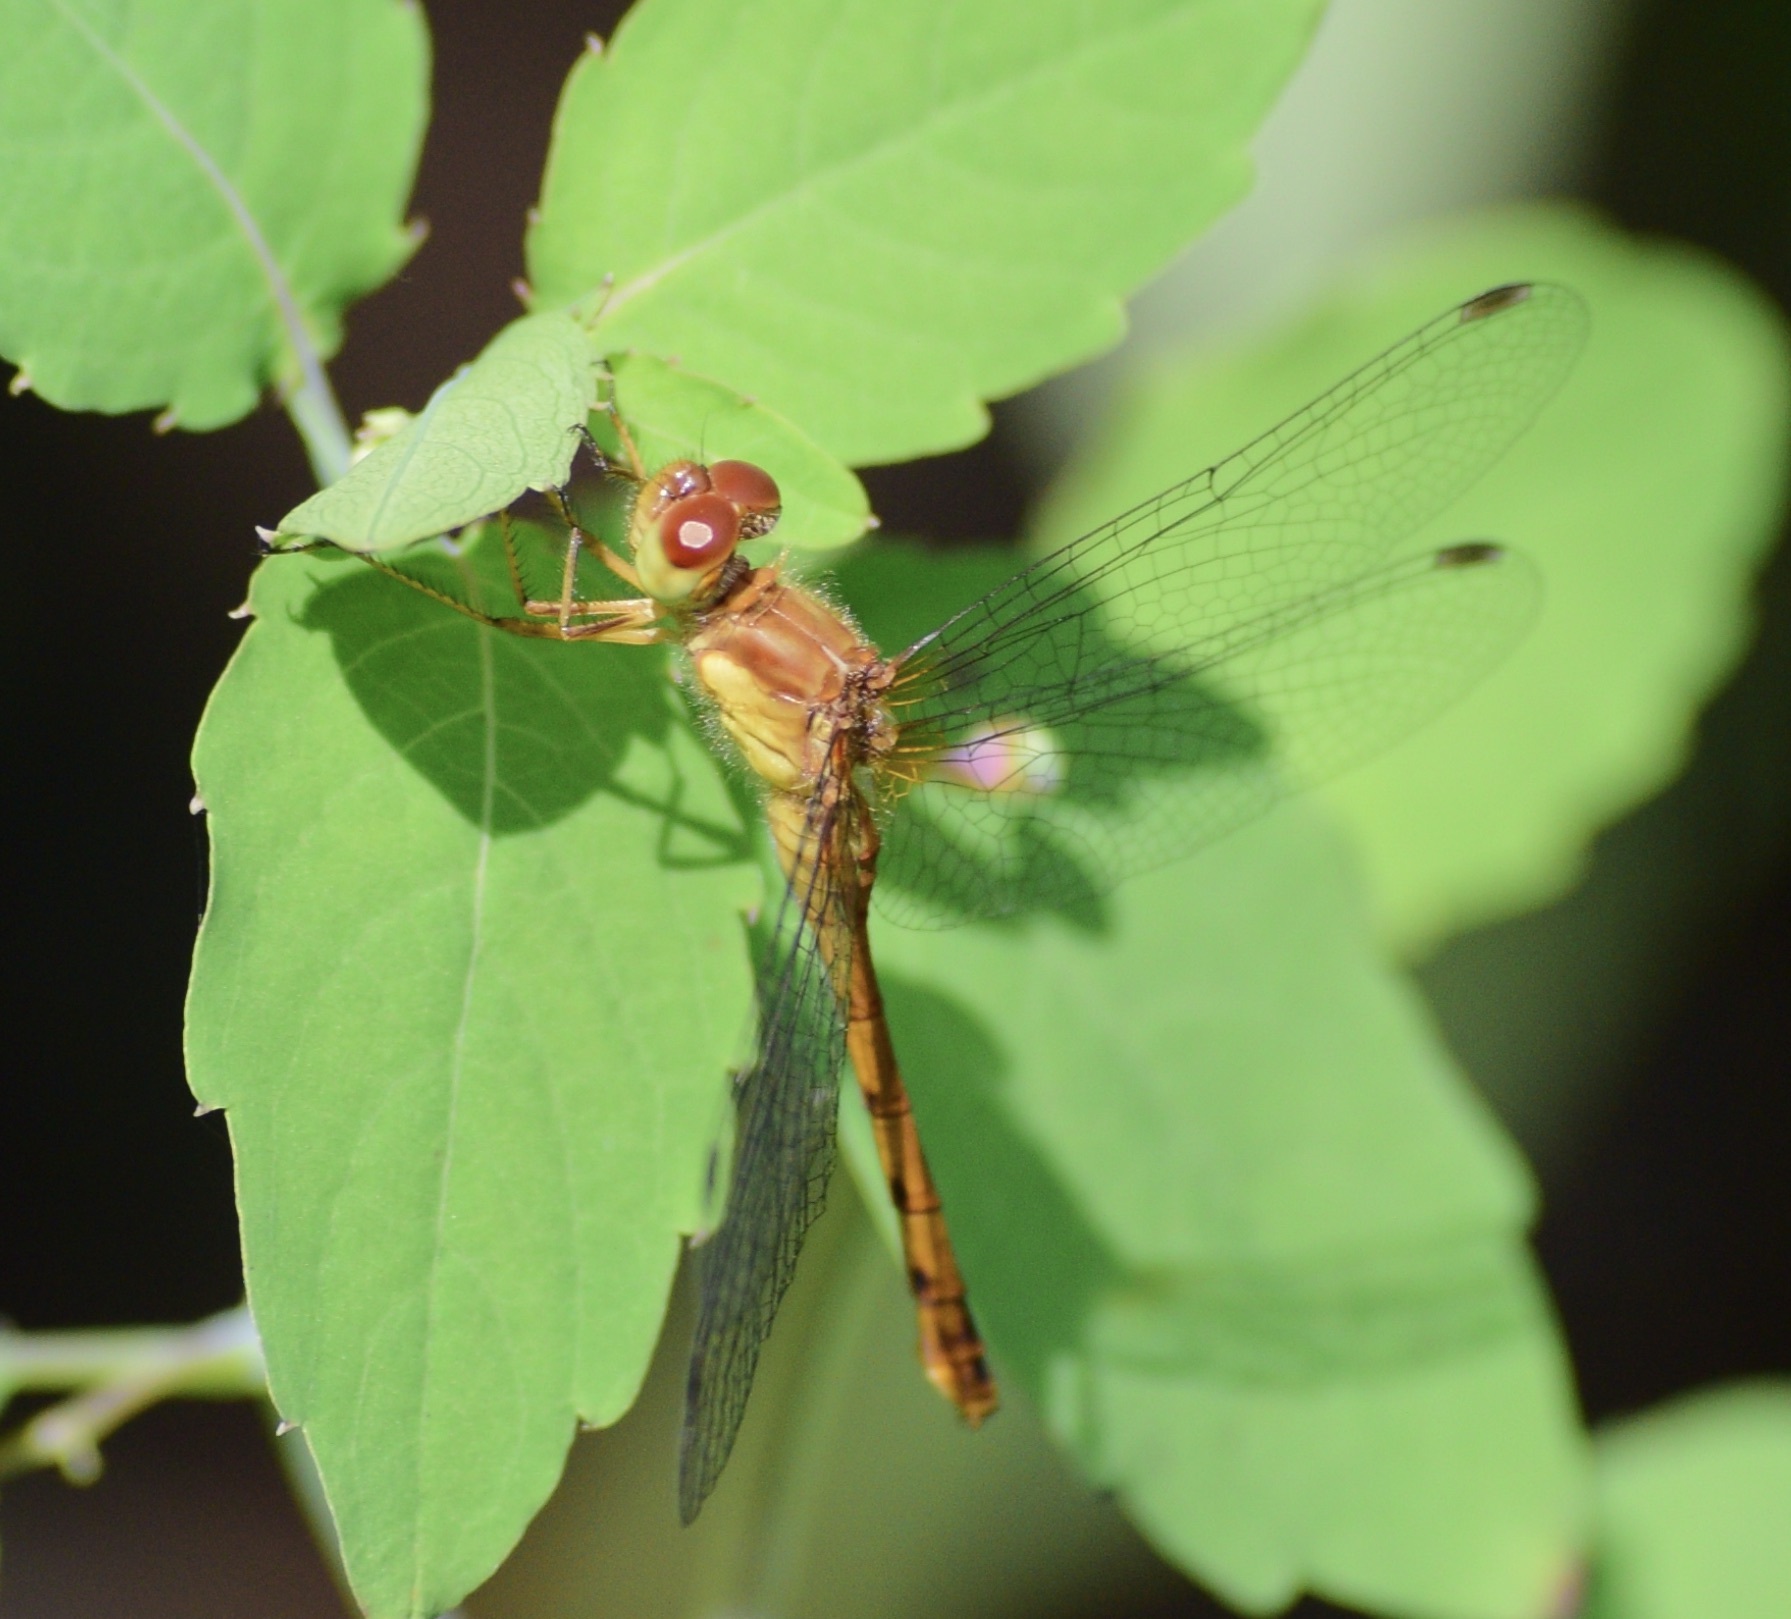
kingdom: Animalia
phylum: Arthropoda
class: Insecta
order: Odonata
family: Libellulidae
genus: Sympetrum
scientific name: Sympetrum vicinum
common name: Autumn meadowhawk
